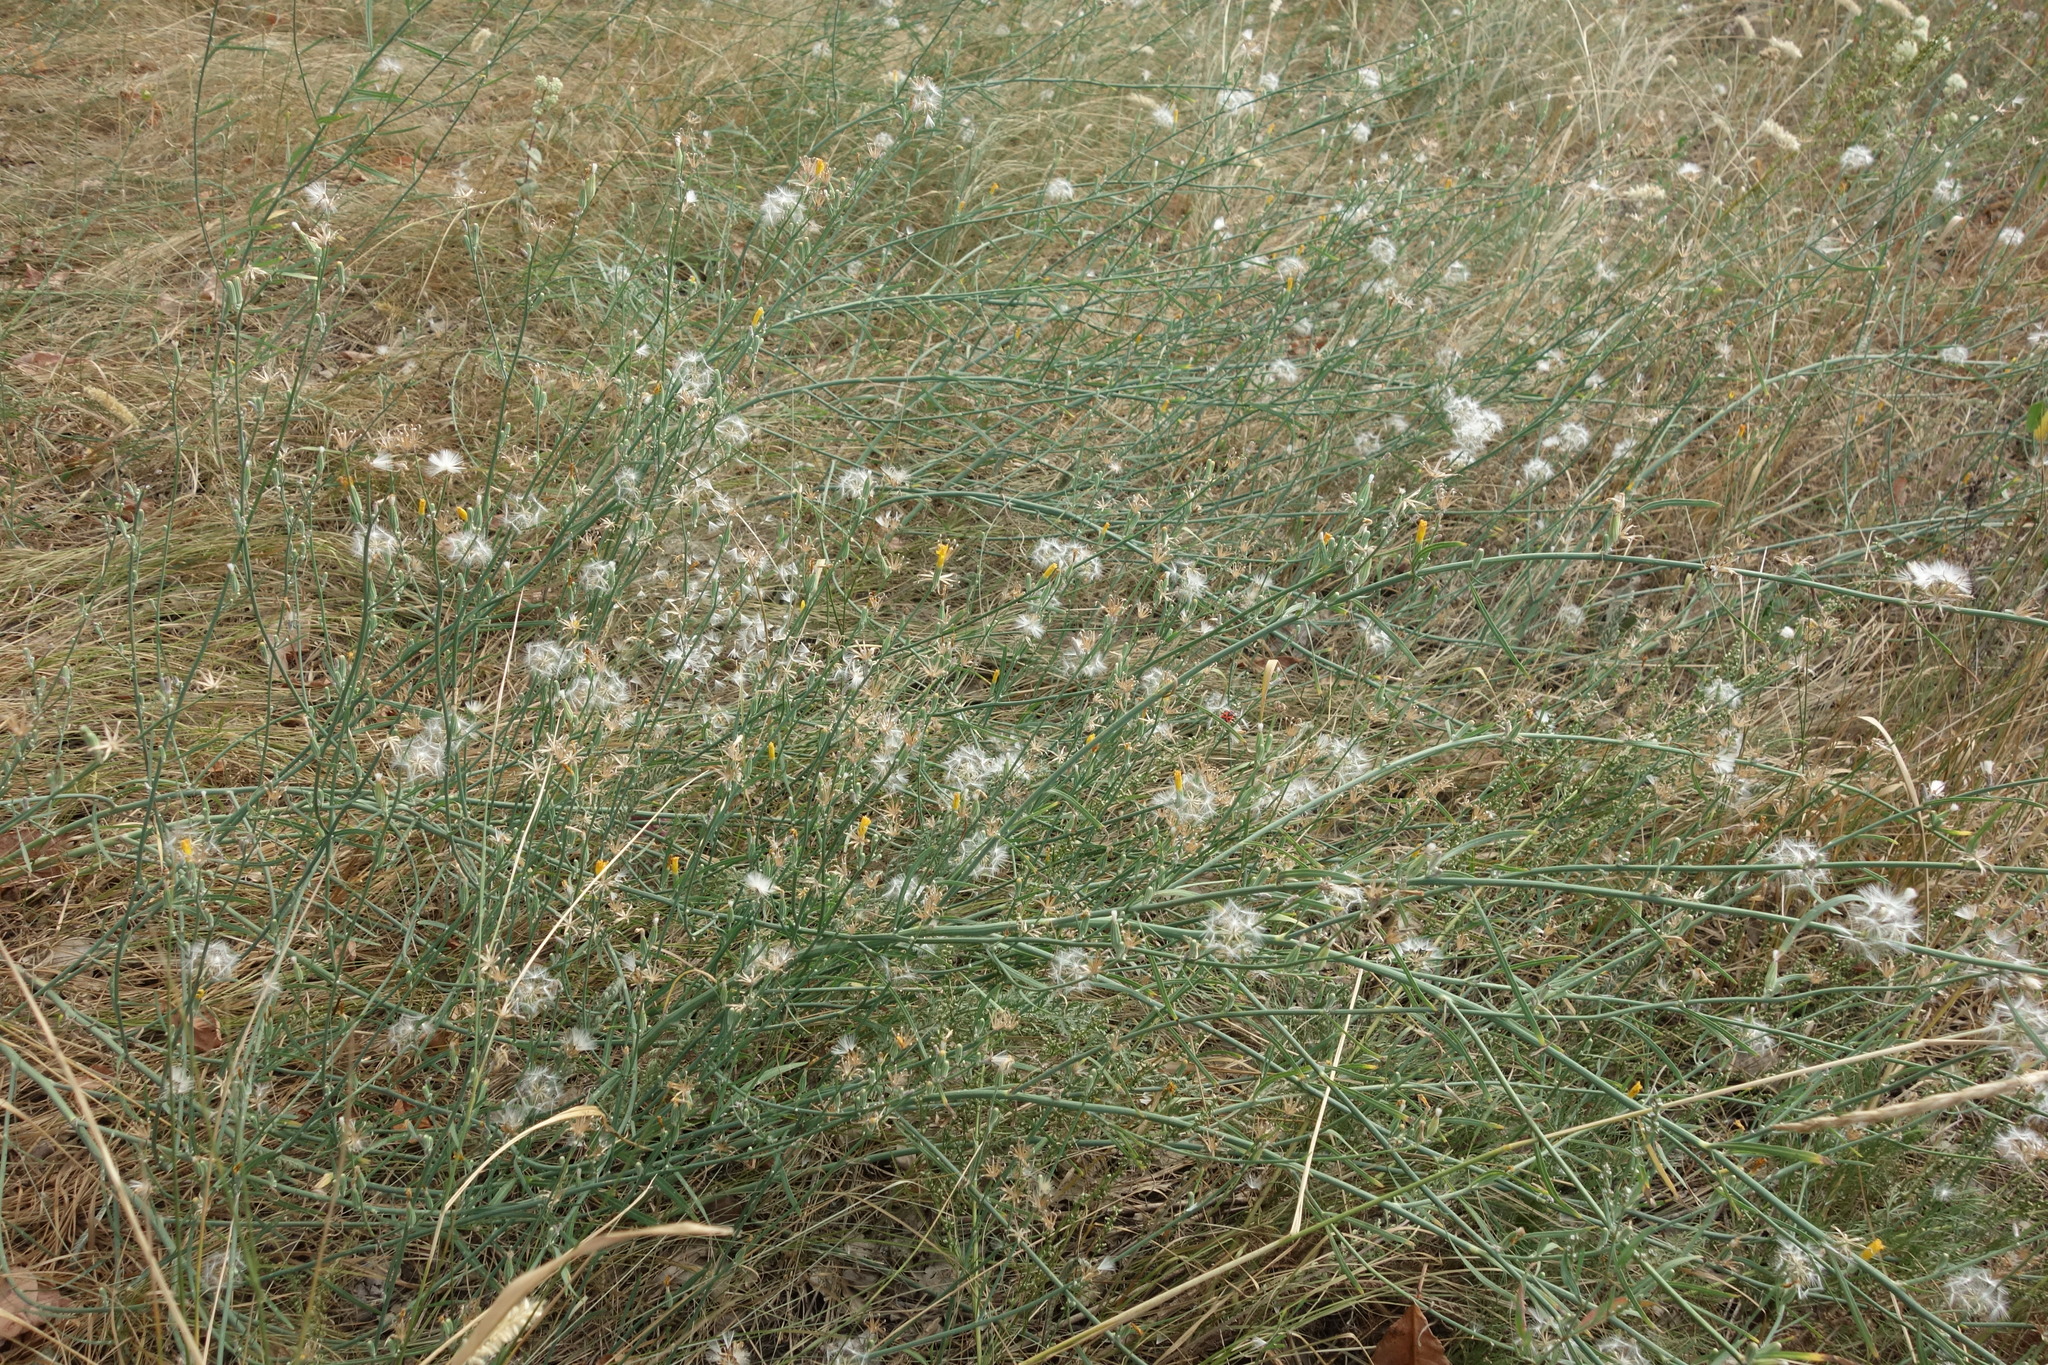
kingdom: Plantae
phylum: Tracheophyta
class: Magnoliopsida
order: Asterales
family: Asteraceae
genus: Chondrilla
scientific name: Chondrilla juncea
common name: Skeleton weed
